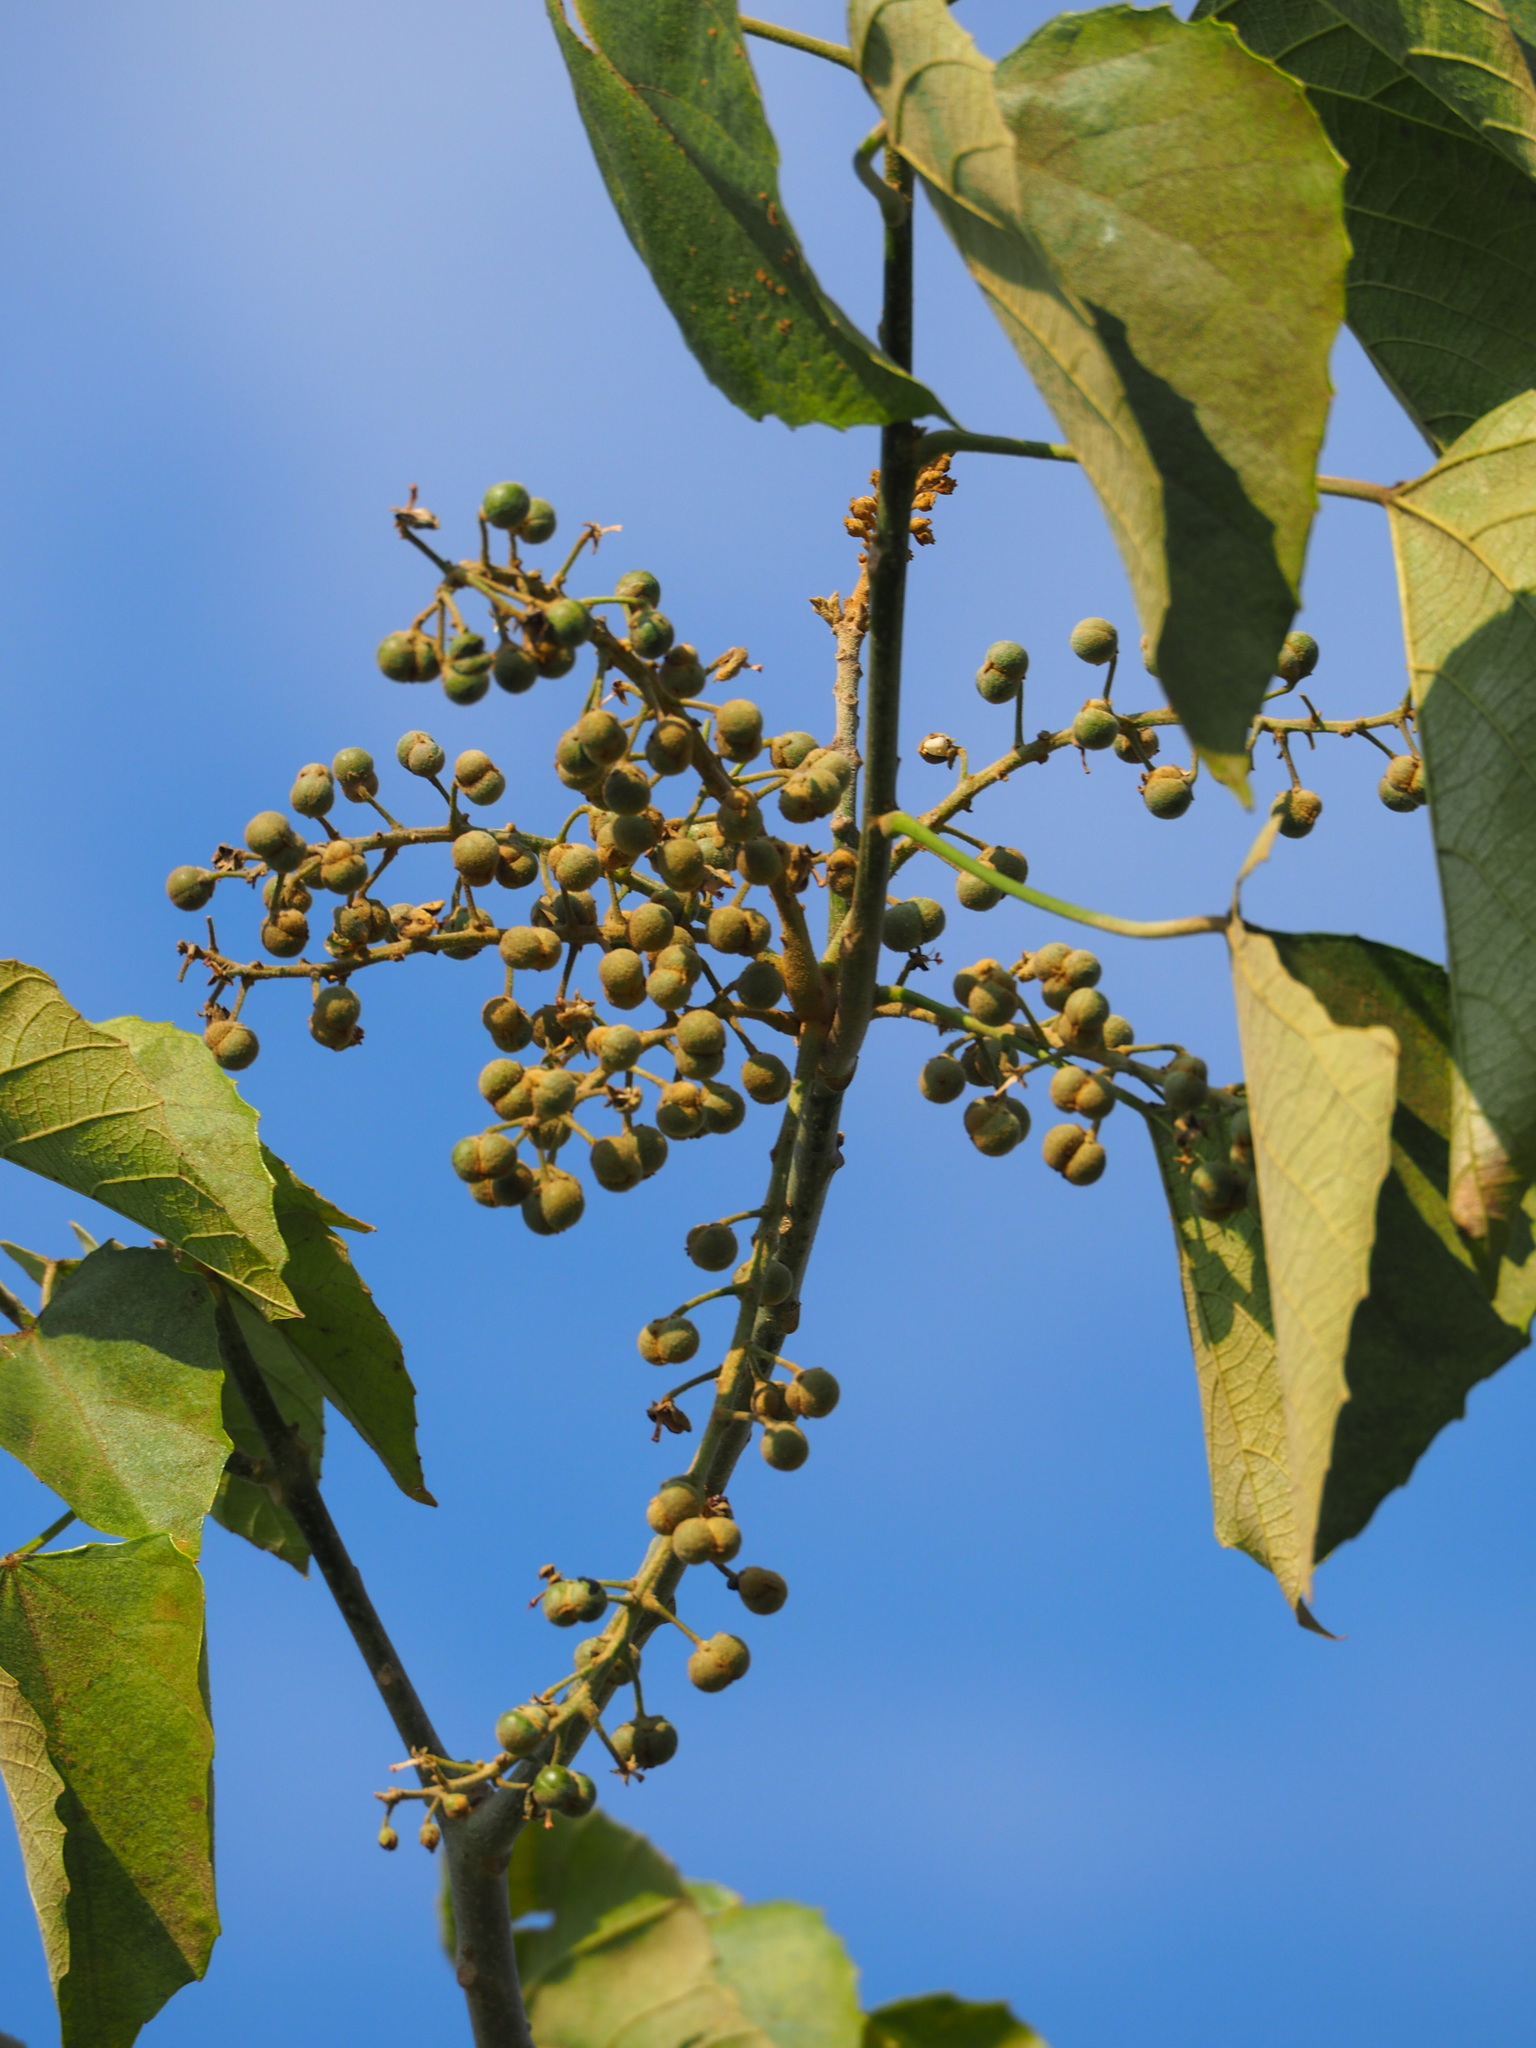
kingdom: Plantae
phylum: Tracheophyta
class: Magnoliopsida
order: Malpighiales
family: Euphorbiaceae
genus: Melanolepis
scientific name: Melanolepis multiglandulosa
